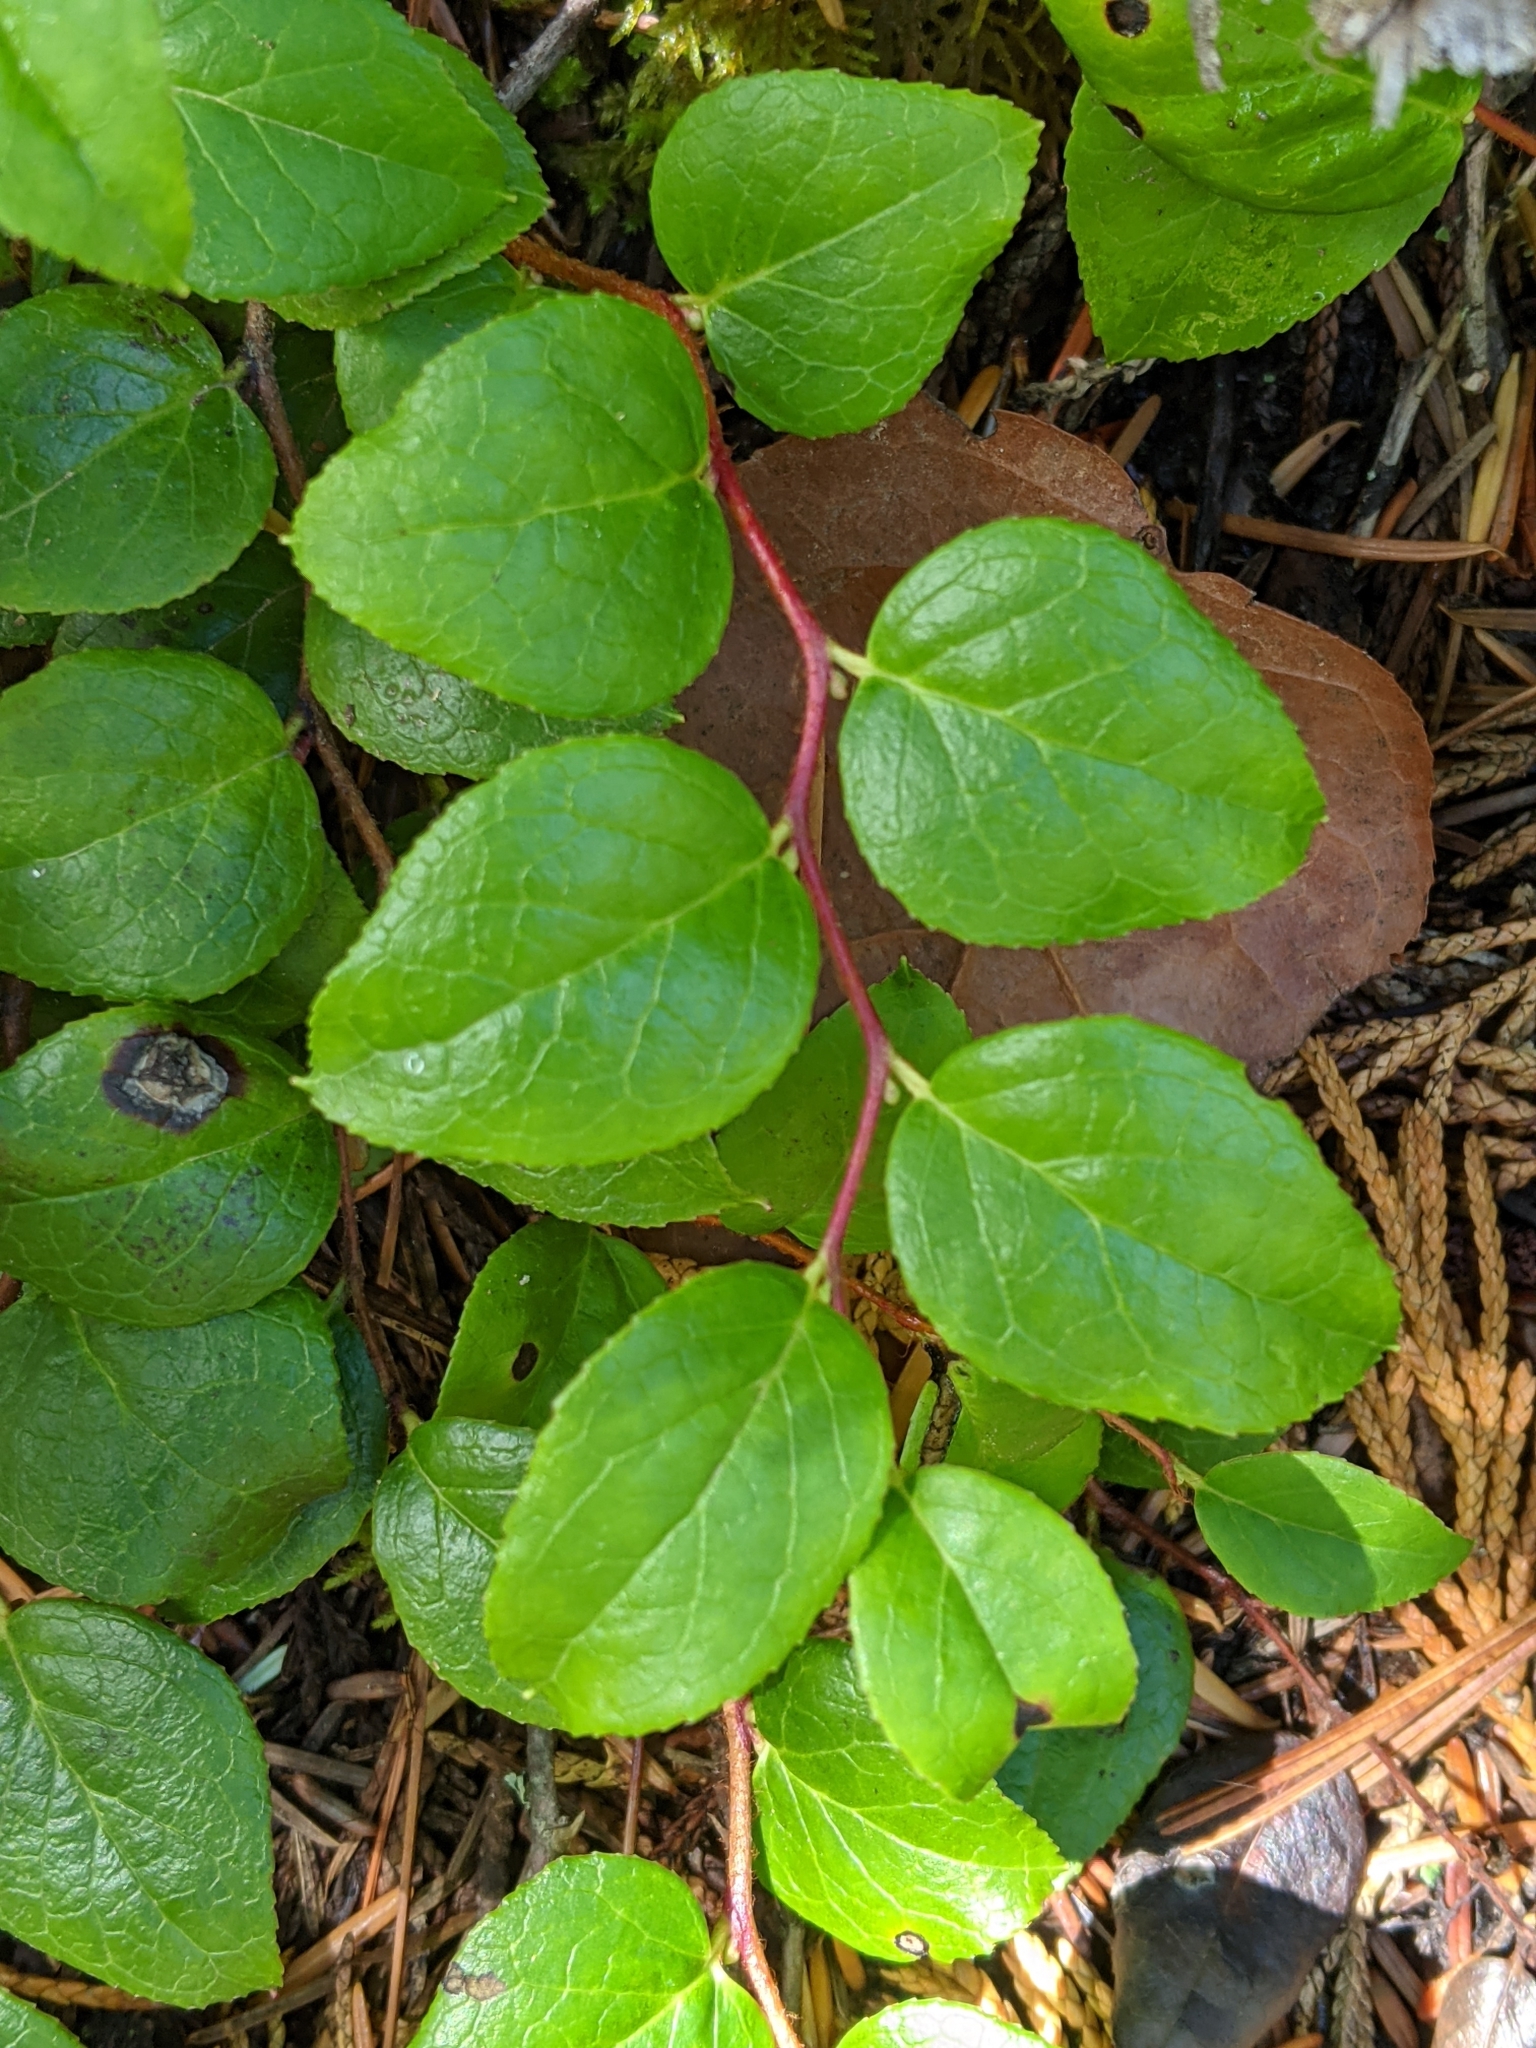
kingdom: Plantae
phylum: Tracheophyta
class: Magnoliopsida
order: Ericales
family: Ericaceae
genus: Gaultheria
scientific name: Gaultheria ovatifolia
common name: Oregon wintergreen
